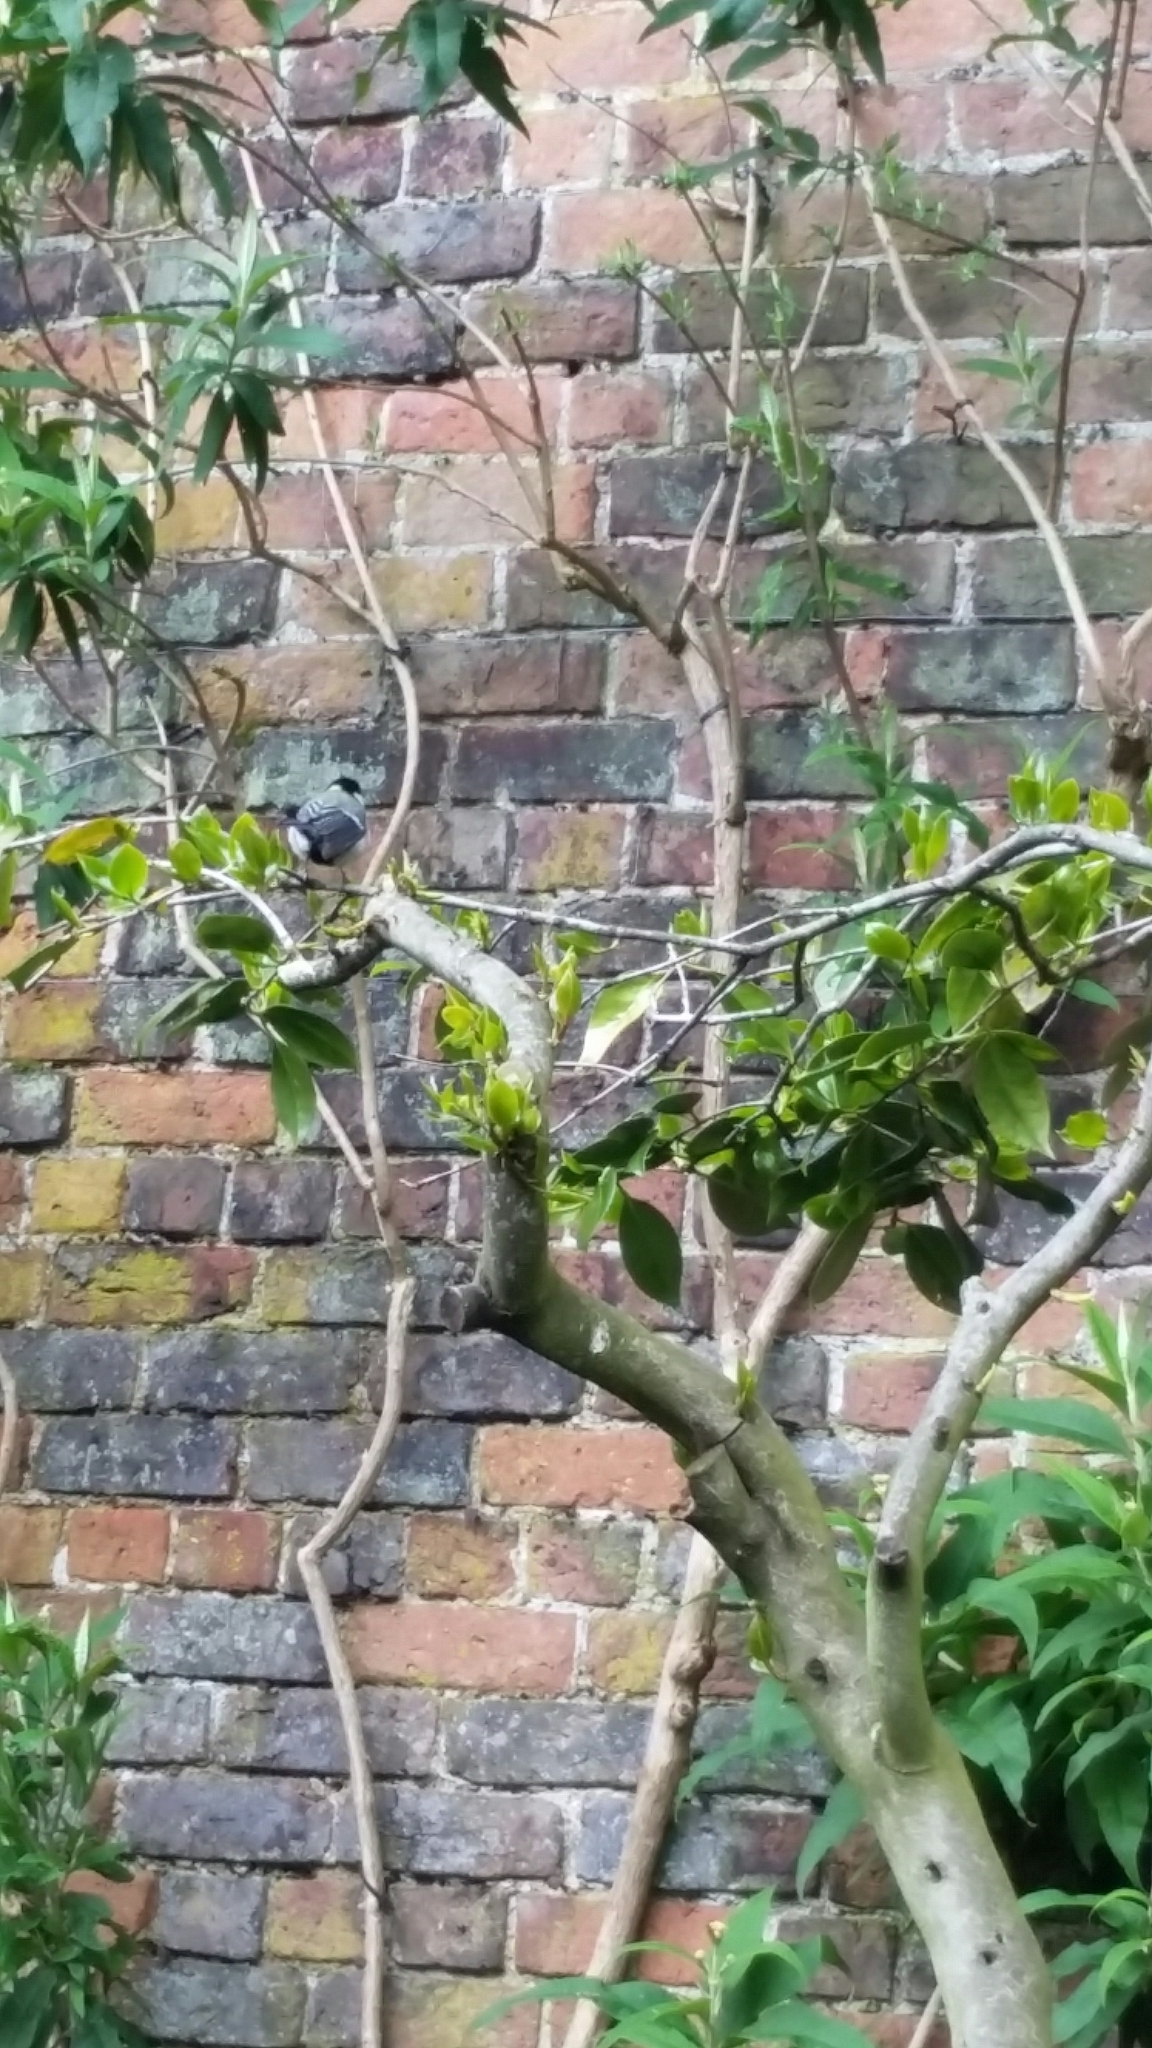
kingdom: Animalia
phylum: Chordata
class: Aves
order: Passeriformes
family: Paridae
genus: Parus
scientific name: Parus major
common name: Great tit
